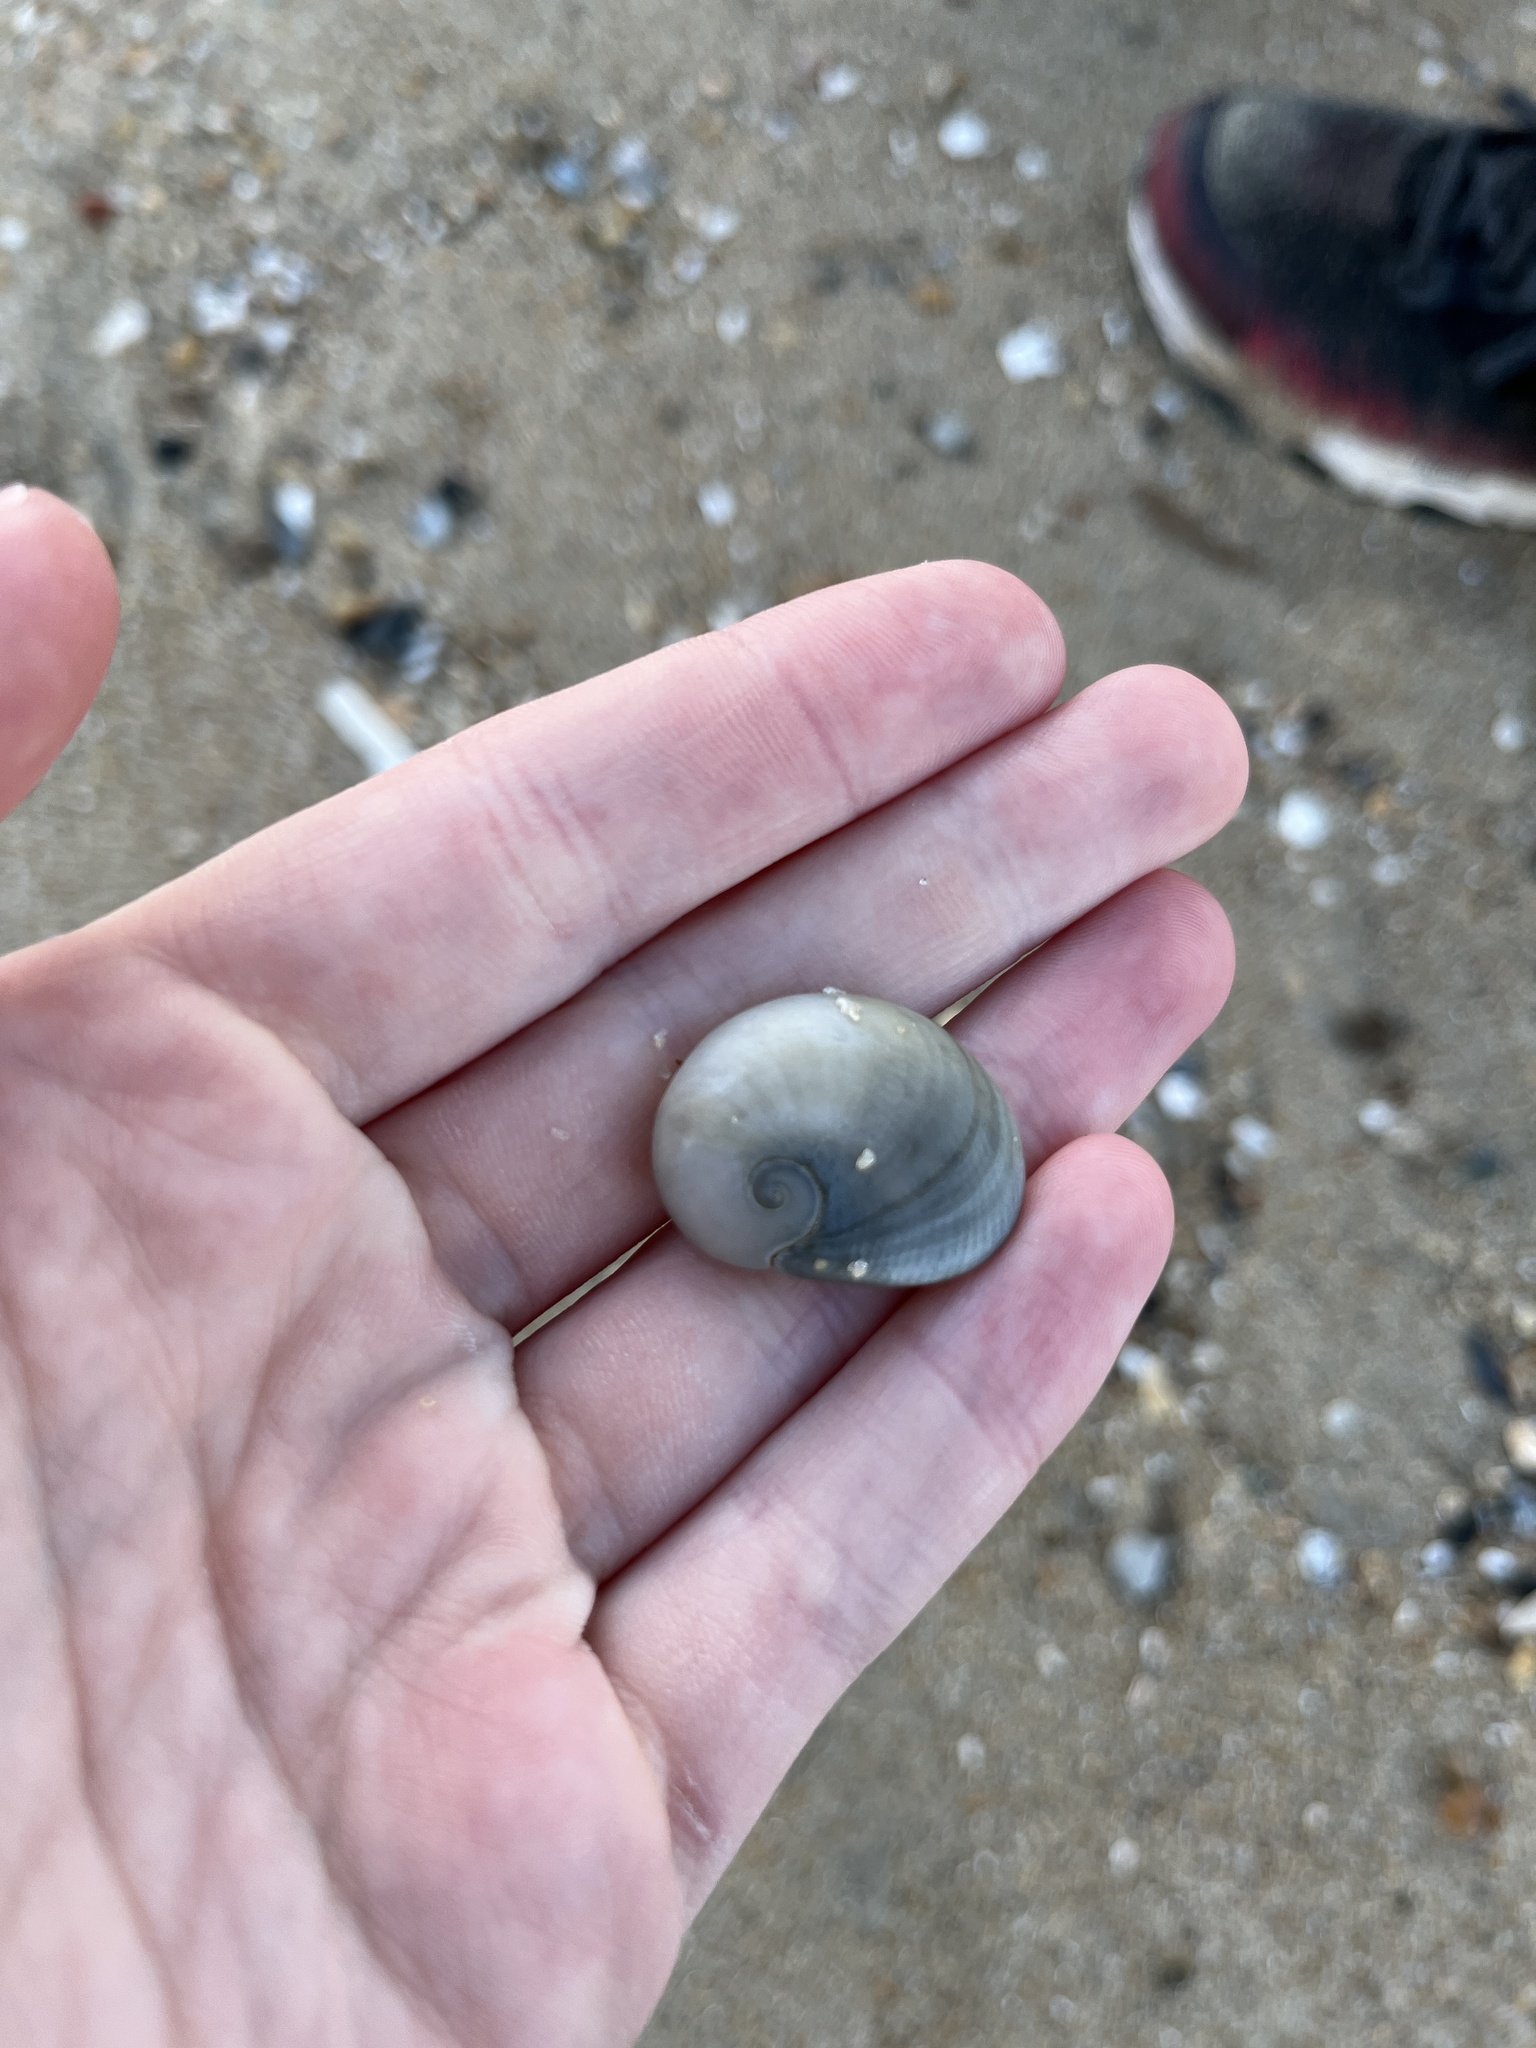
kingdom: Animalia
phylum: Mollusca
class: Gastropoda
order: Littorinimorpha
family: Naticidae
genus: Sinum
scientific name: Sinum perspectivum
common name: White baby ear
